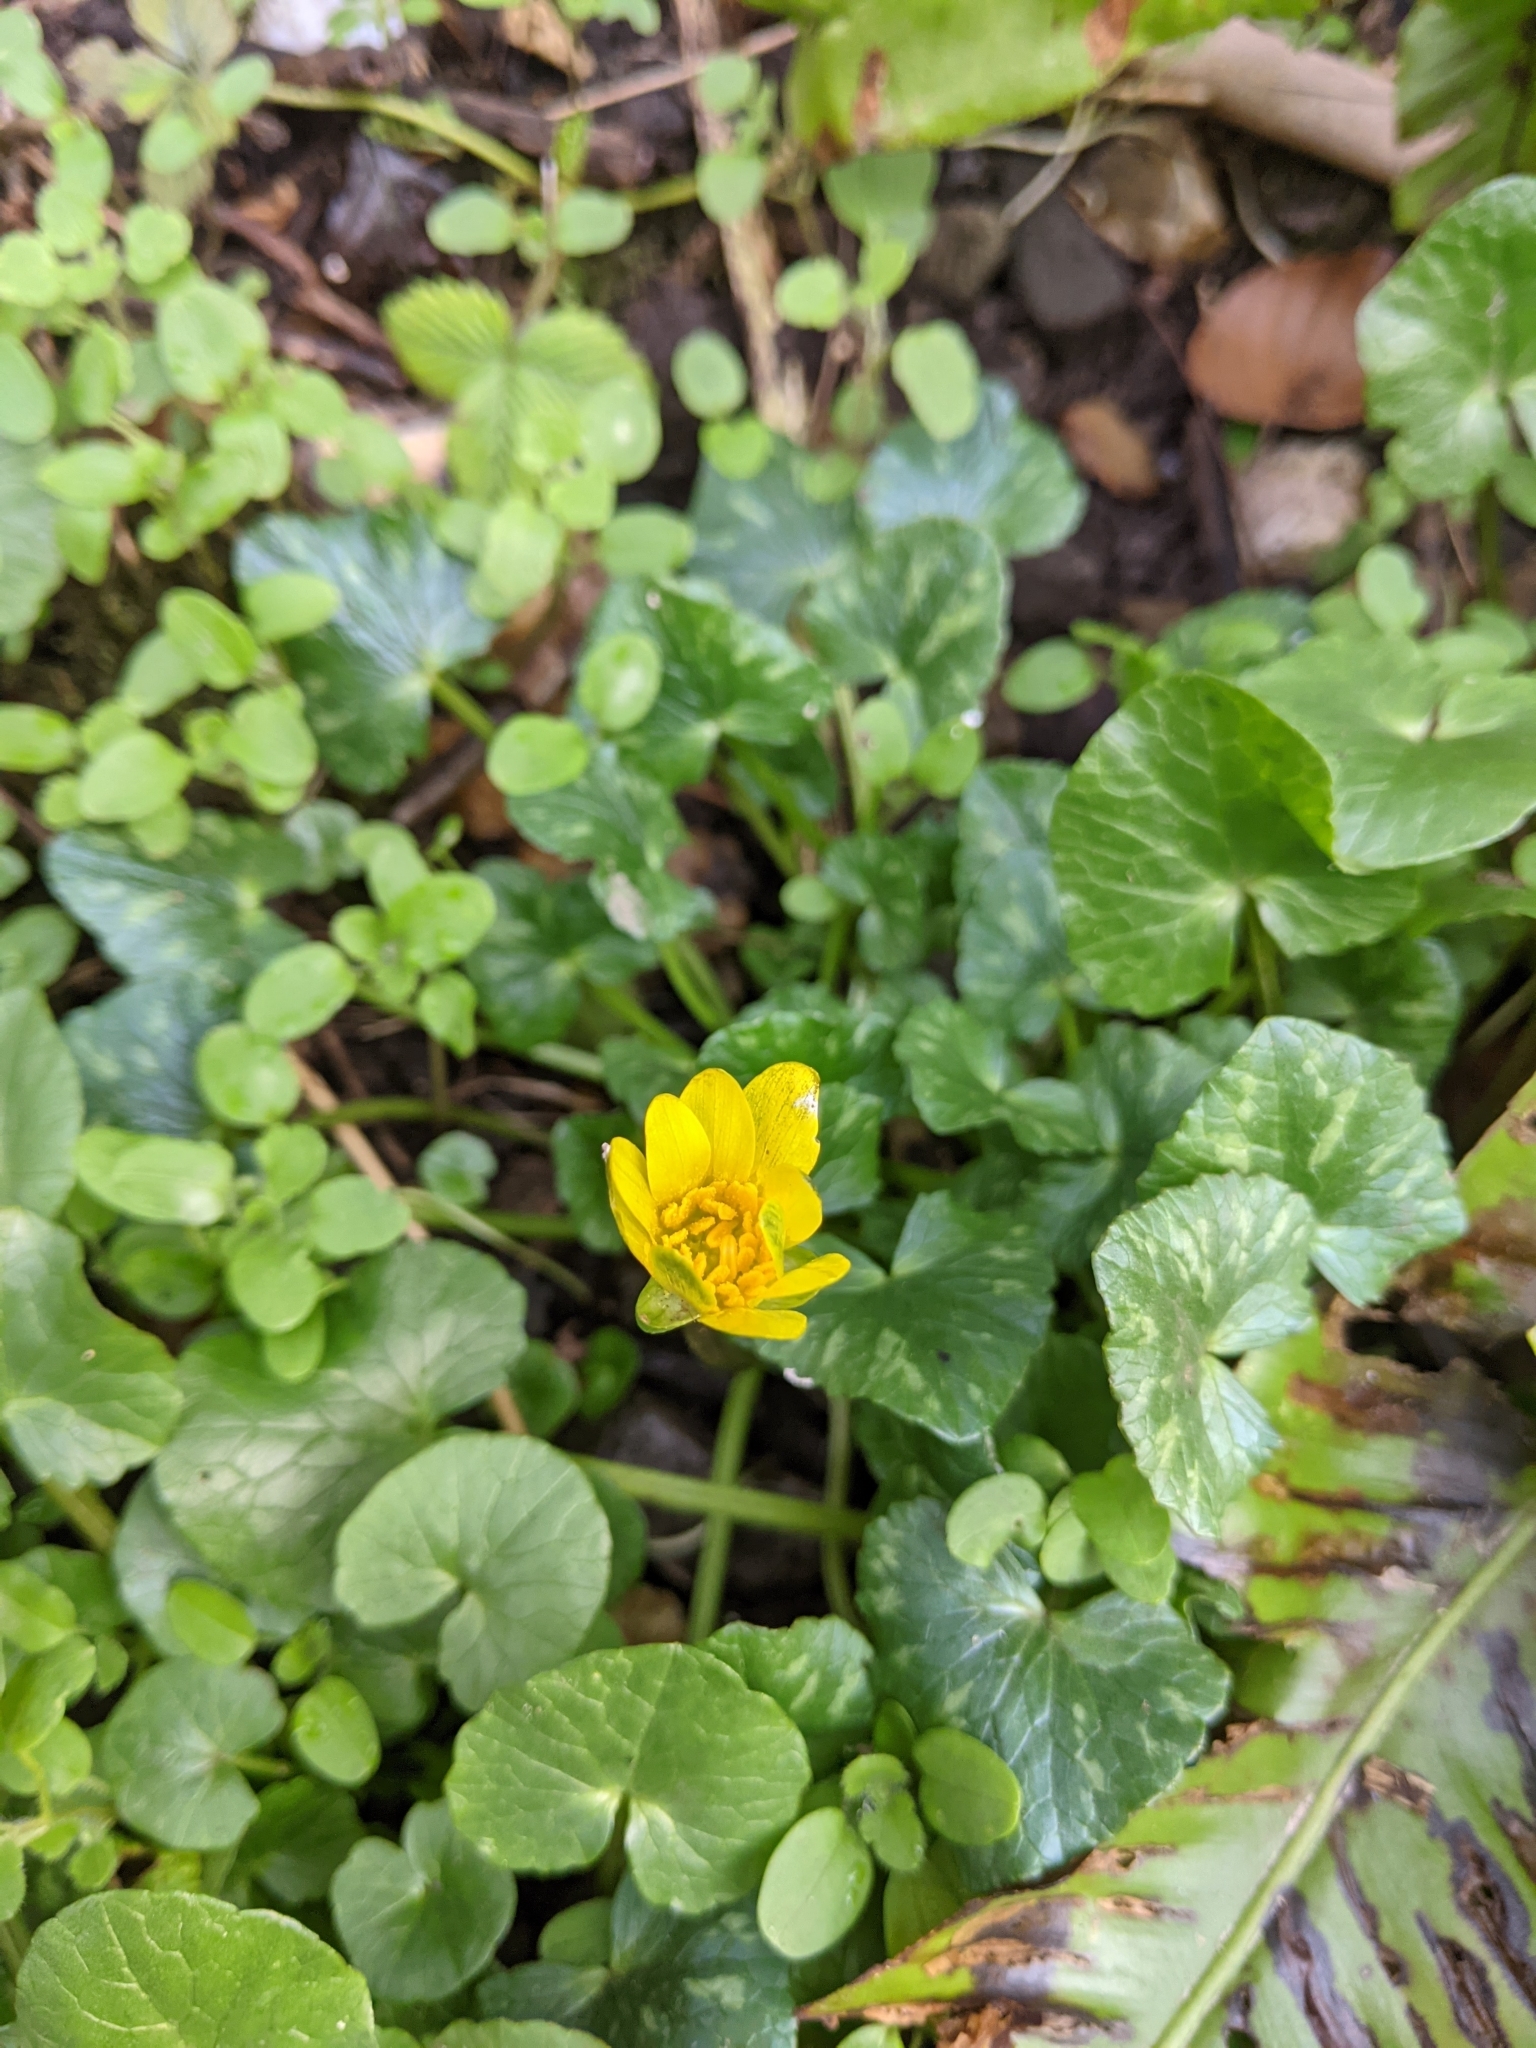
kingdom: Plantae
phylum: Tracheophyta
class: Magnoliopsida
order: Ranunculales
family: Ranunculaceae
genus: Ficaria
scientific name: Ficaria verna
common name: Lesser celandine
